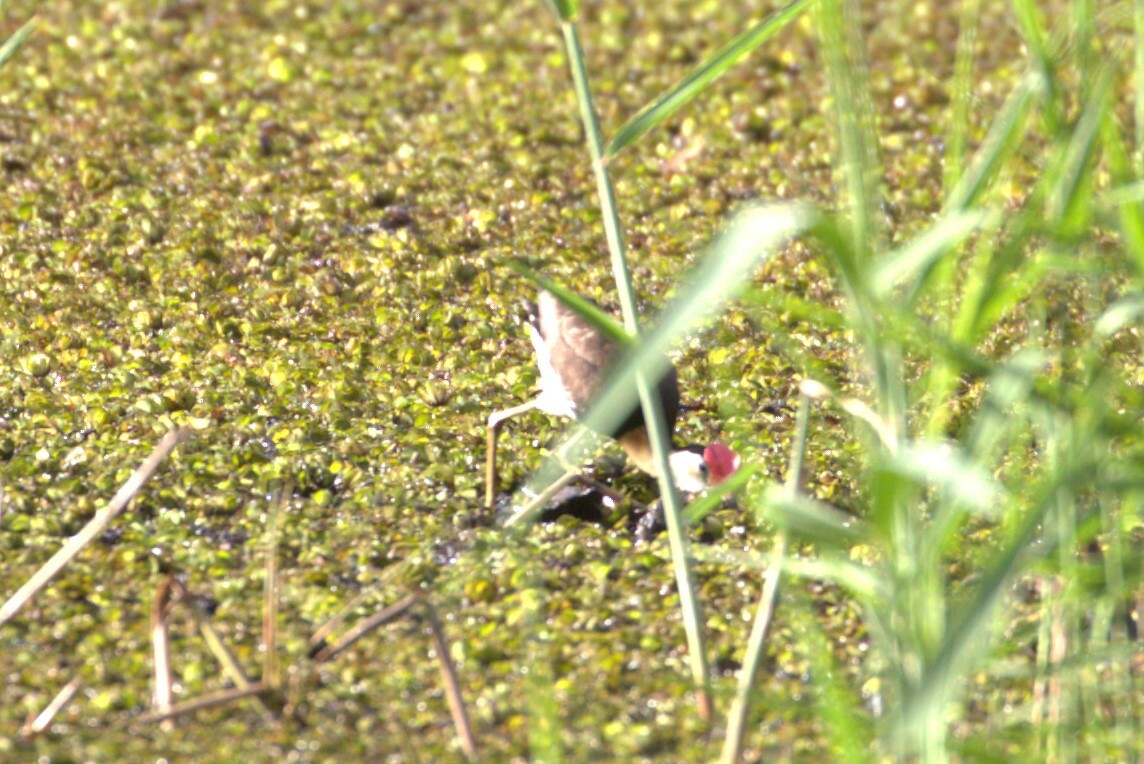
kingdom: Animalia
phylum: Chordata
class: Aves
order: Charadriiformes
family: Jacanidae
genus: Irediparra
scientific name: Irediparra gallinacea
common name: Comb-crested jacana
